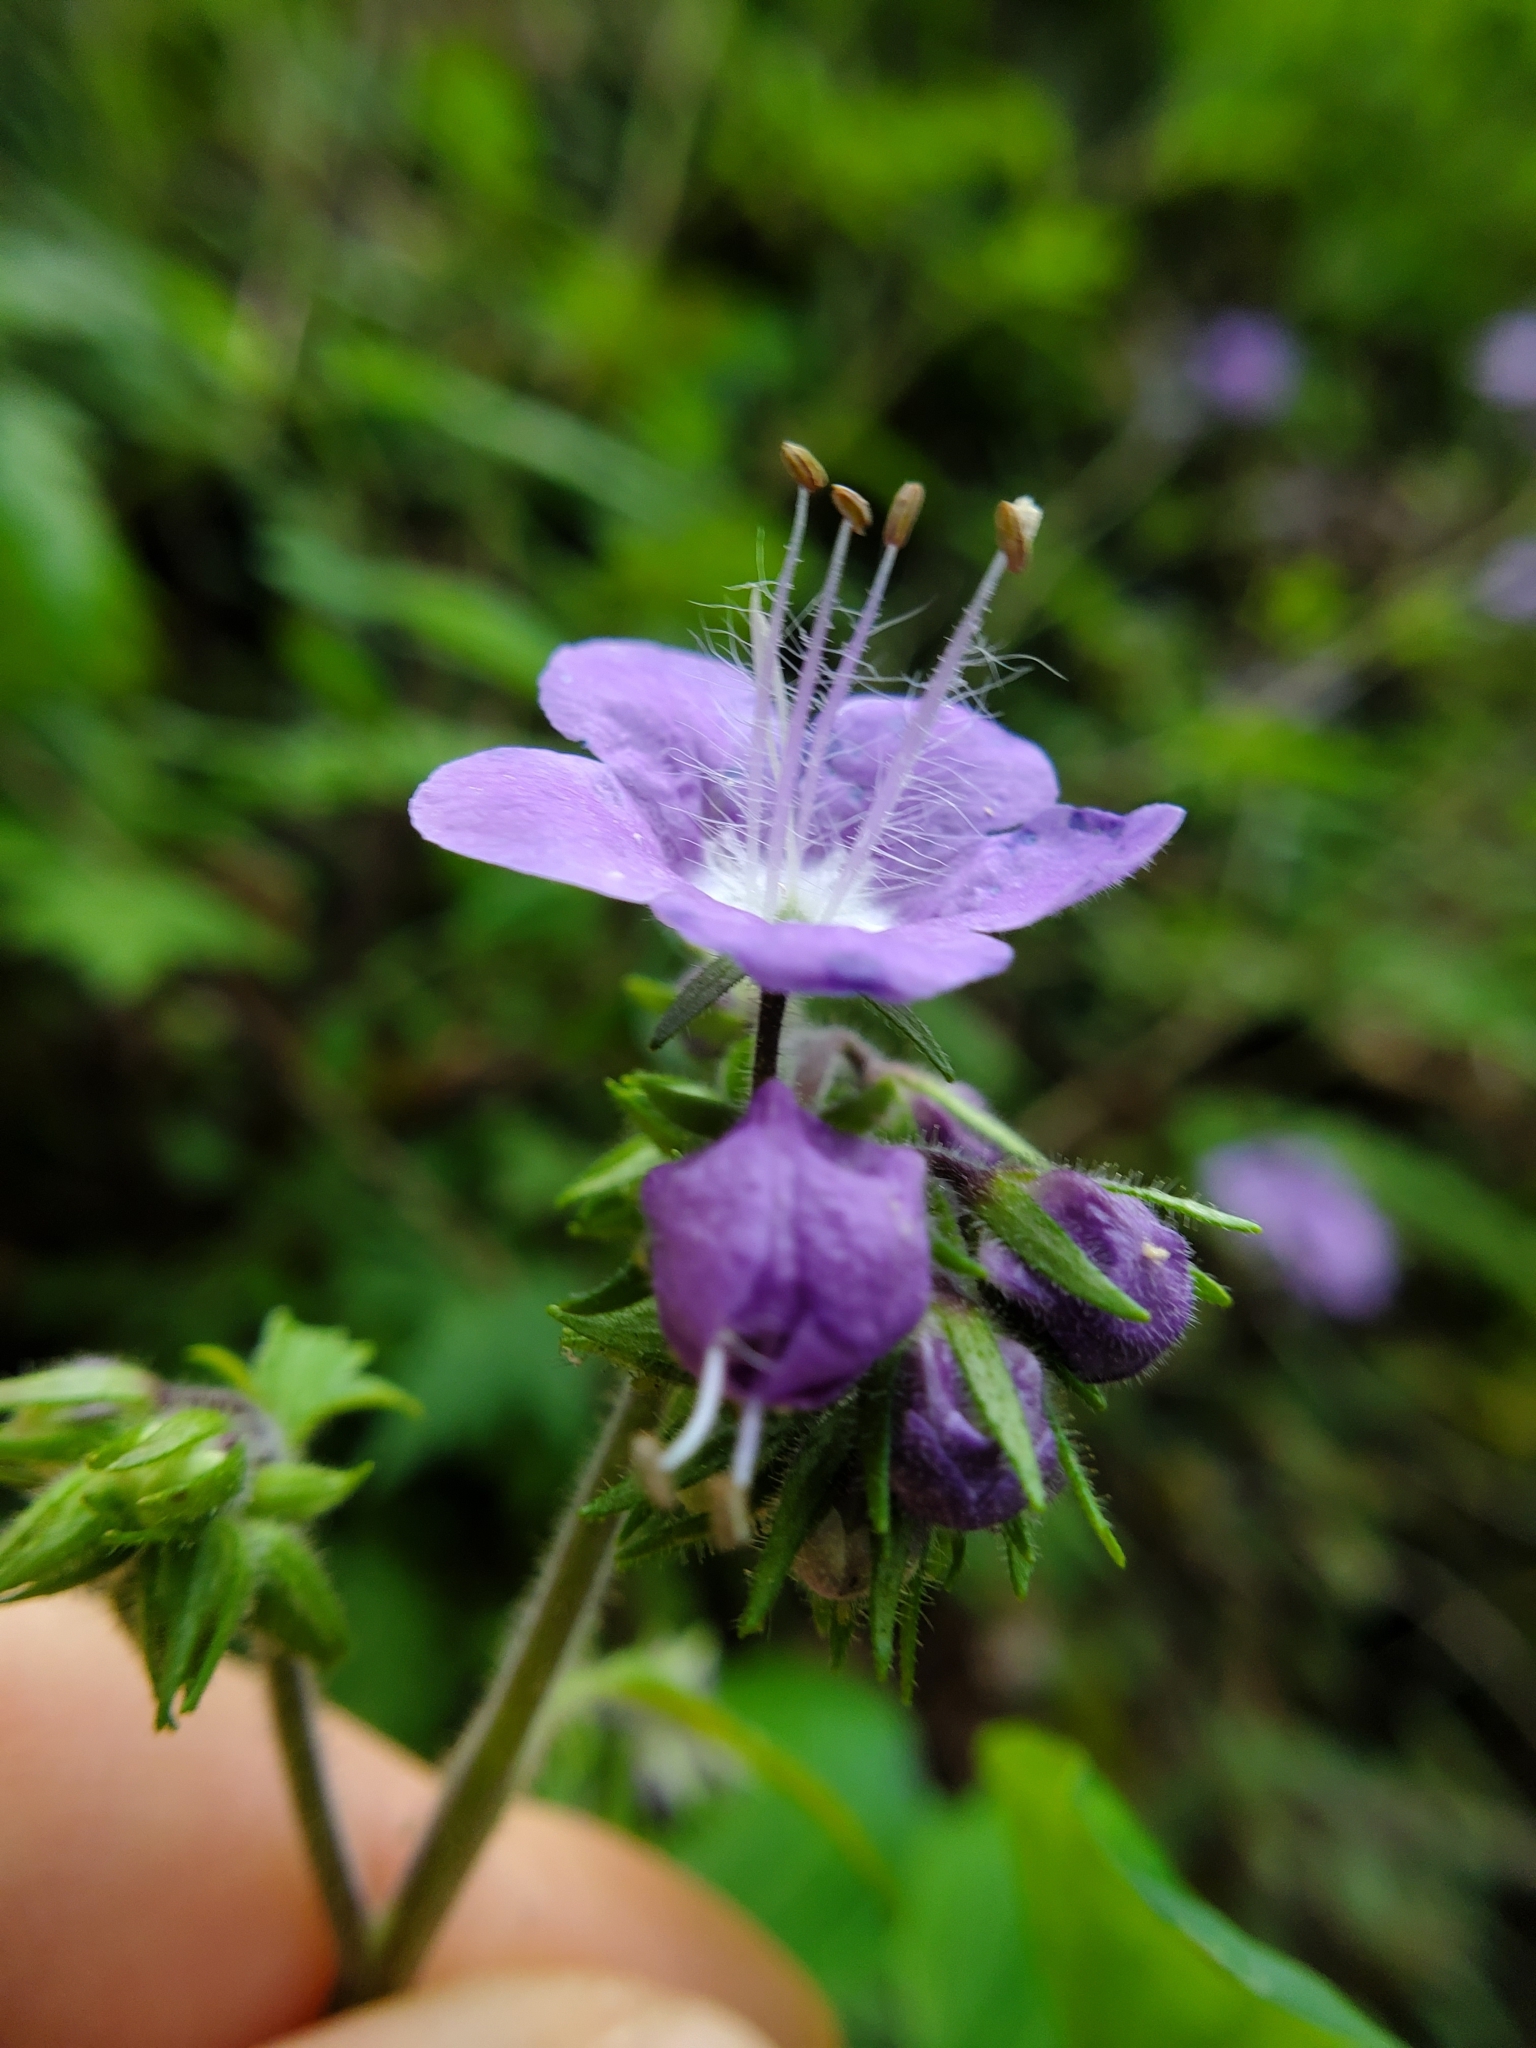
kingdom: Plantae
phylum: Tracheophyta
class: Magnoliopsida
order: Boraginales
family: Hydrophyllaceae
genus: Phacelia
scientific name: Phacelia bipinnatifida
